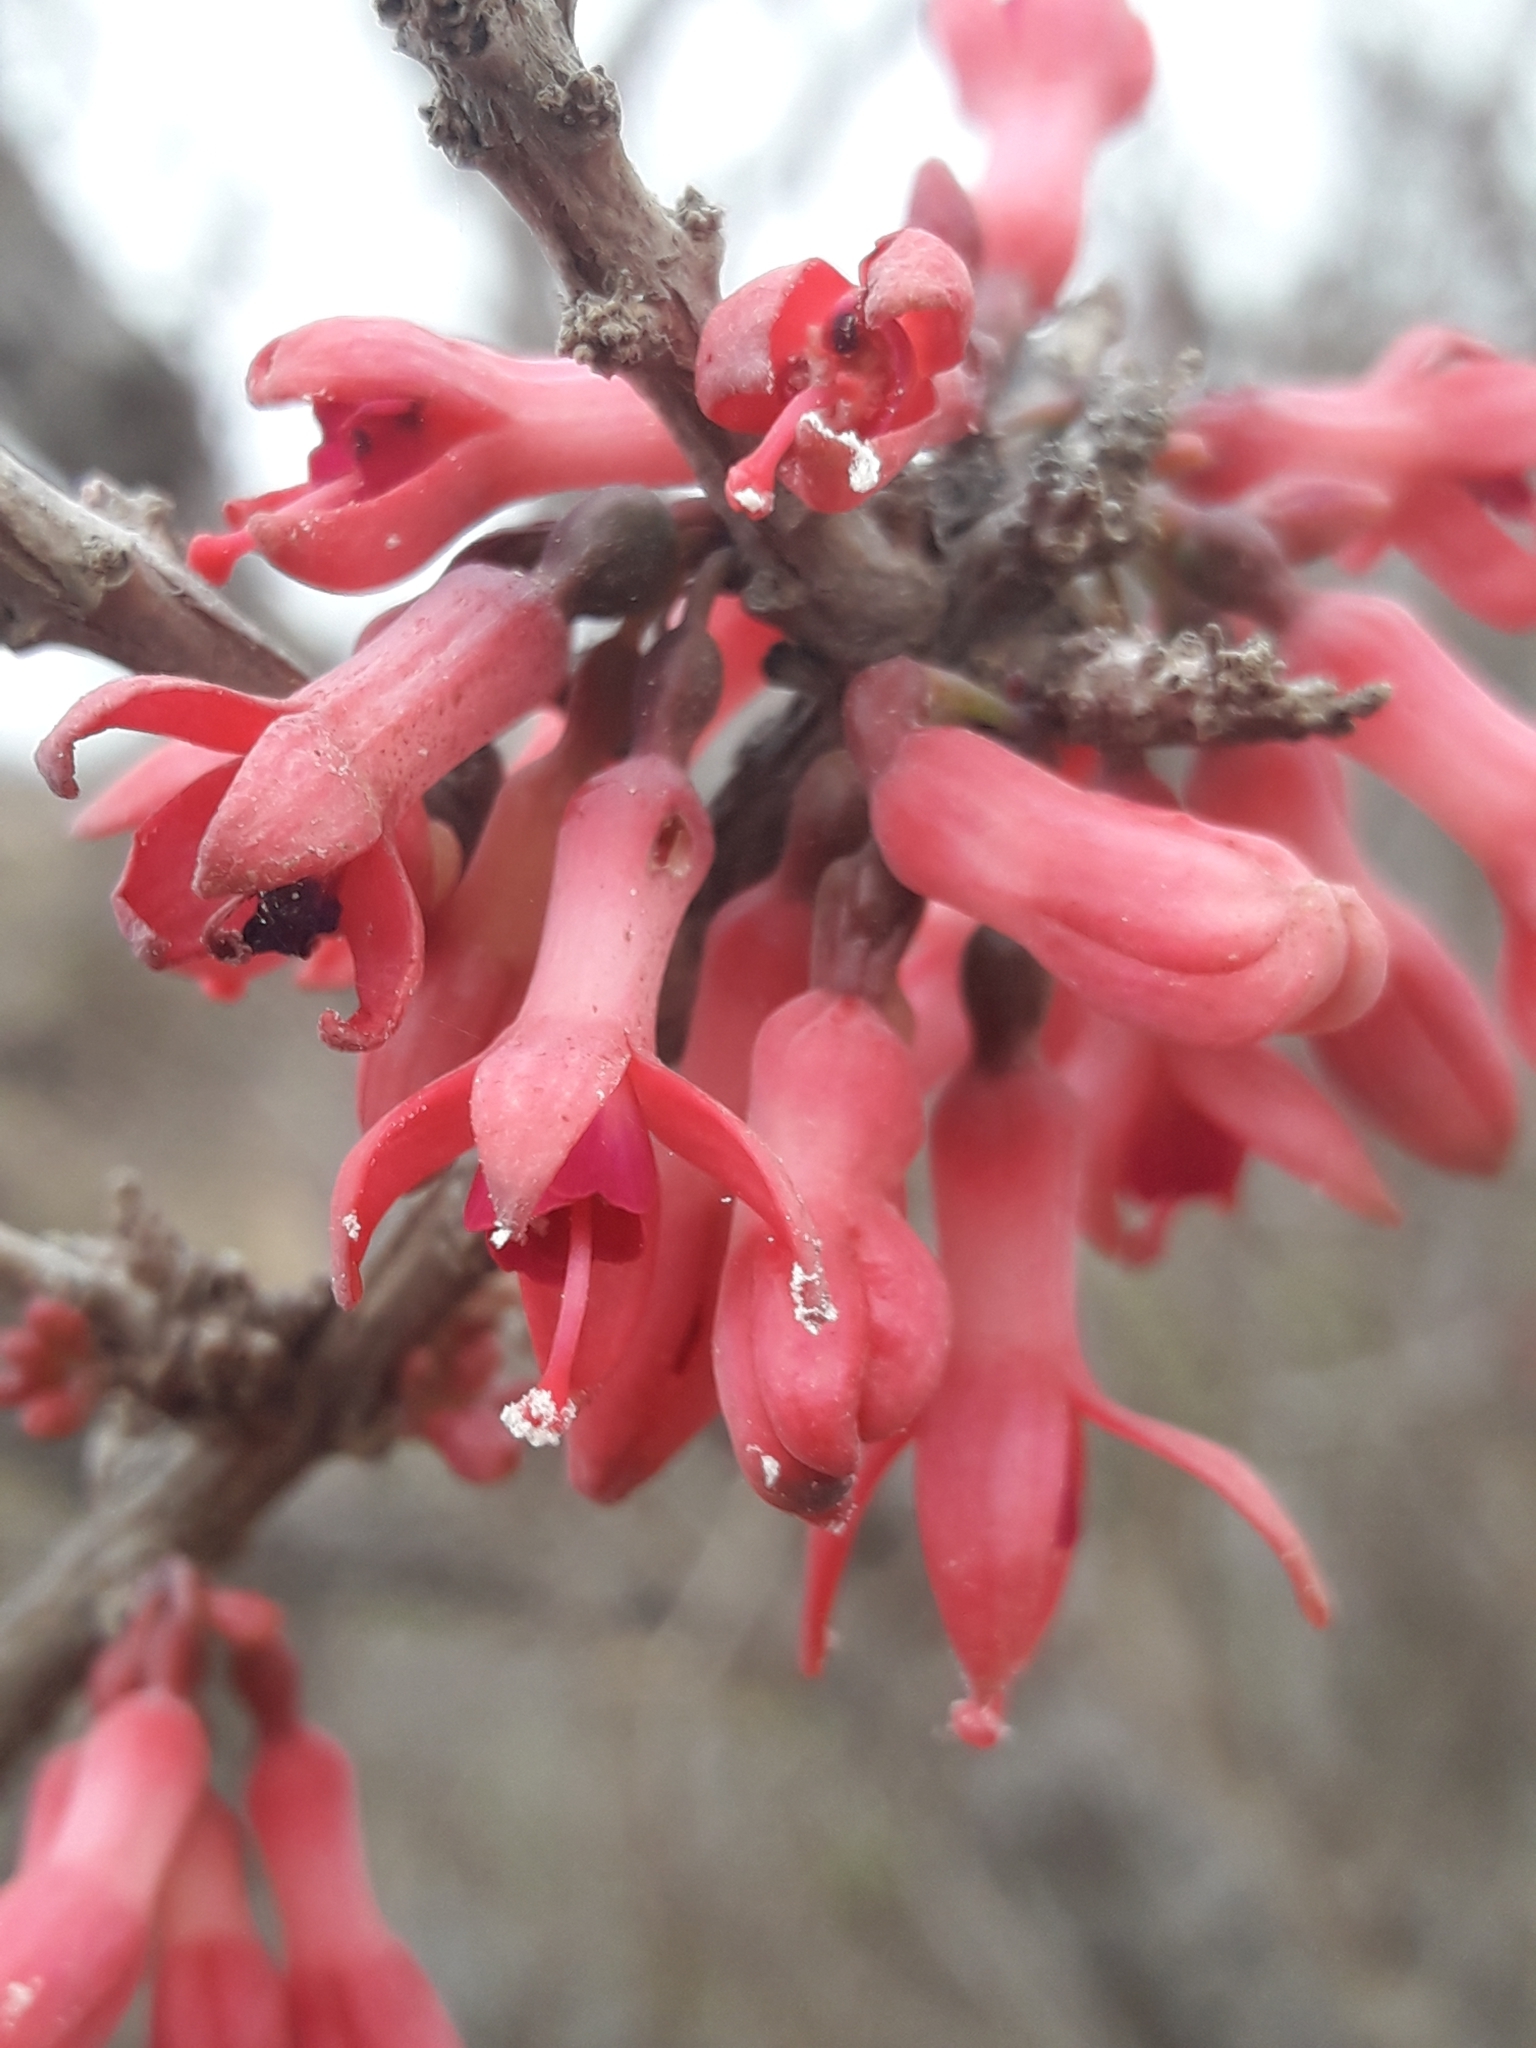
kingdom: Plantae
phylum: Tracheophyta
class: Magnoliopsida
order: Myrtales
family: Onagraceae
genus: Fuchsia
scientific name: Fuchsia lycioides
